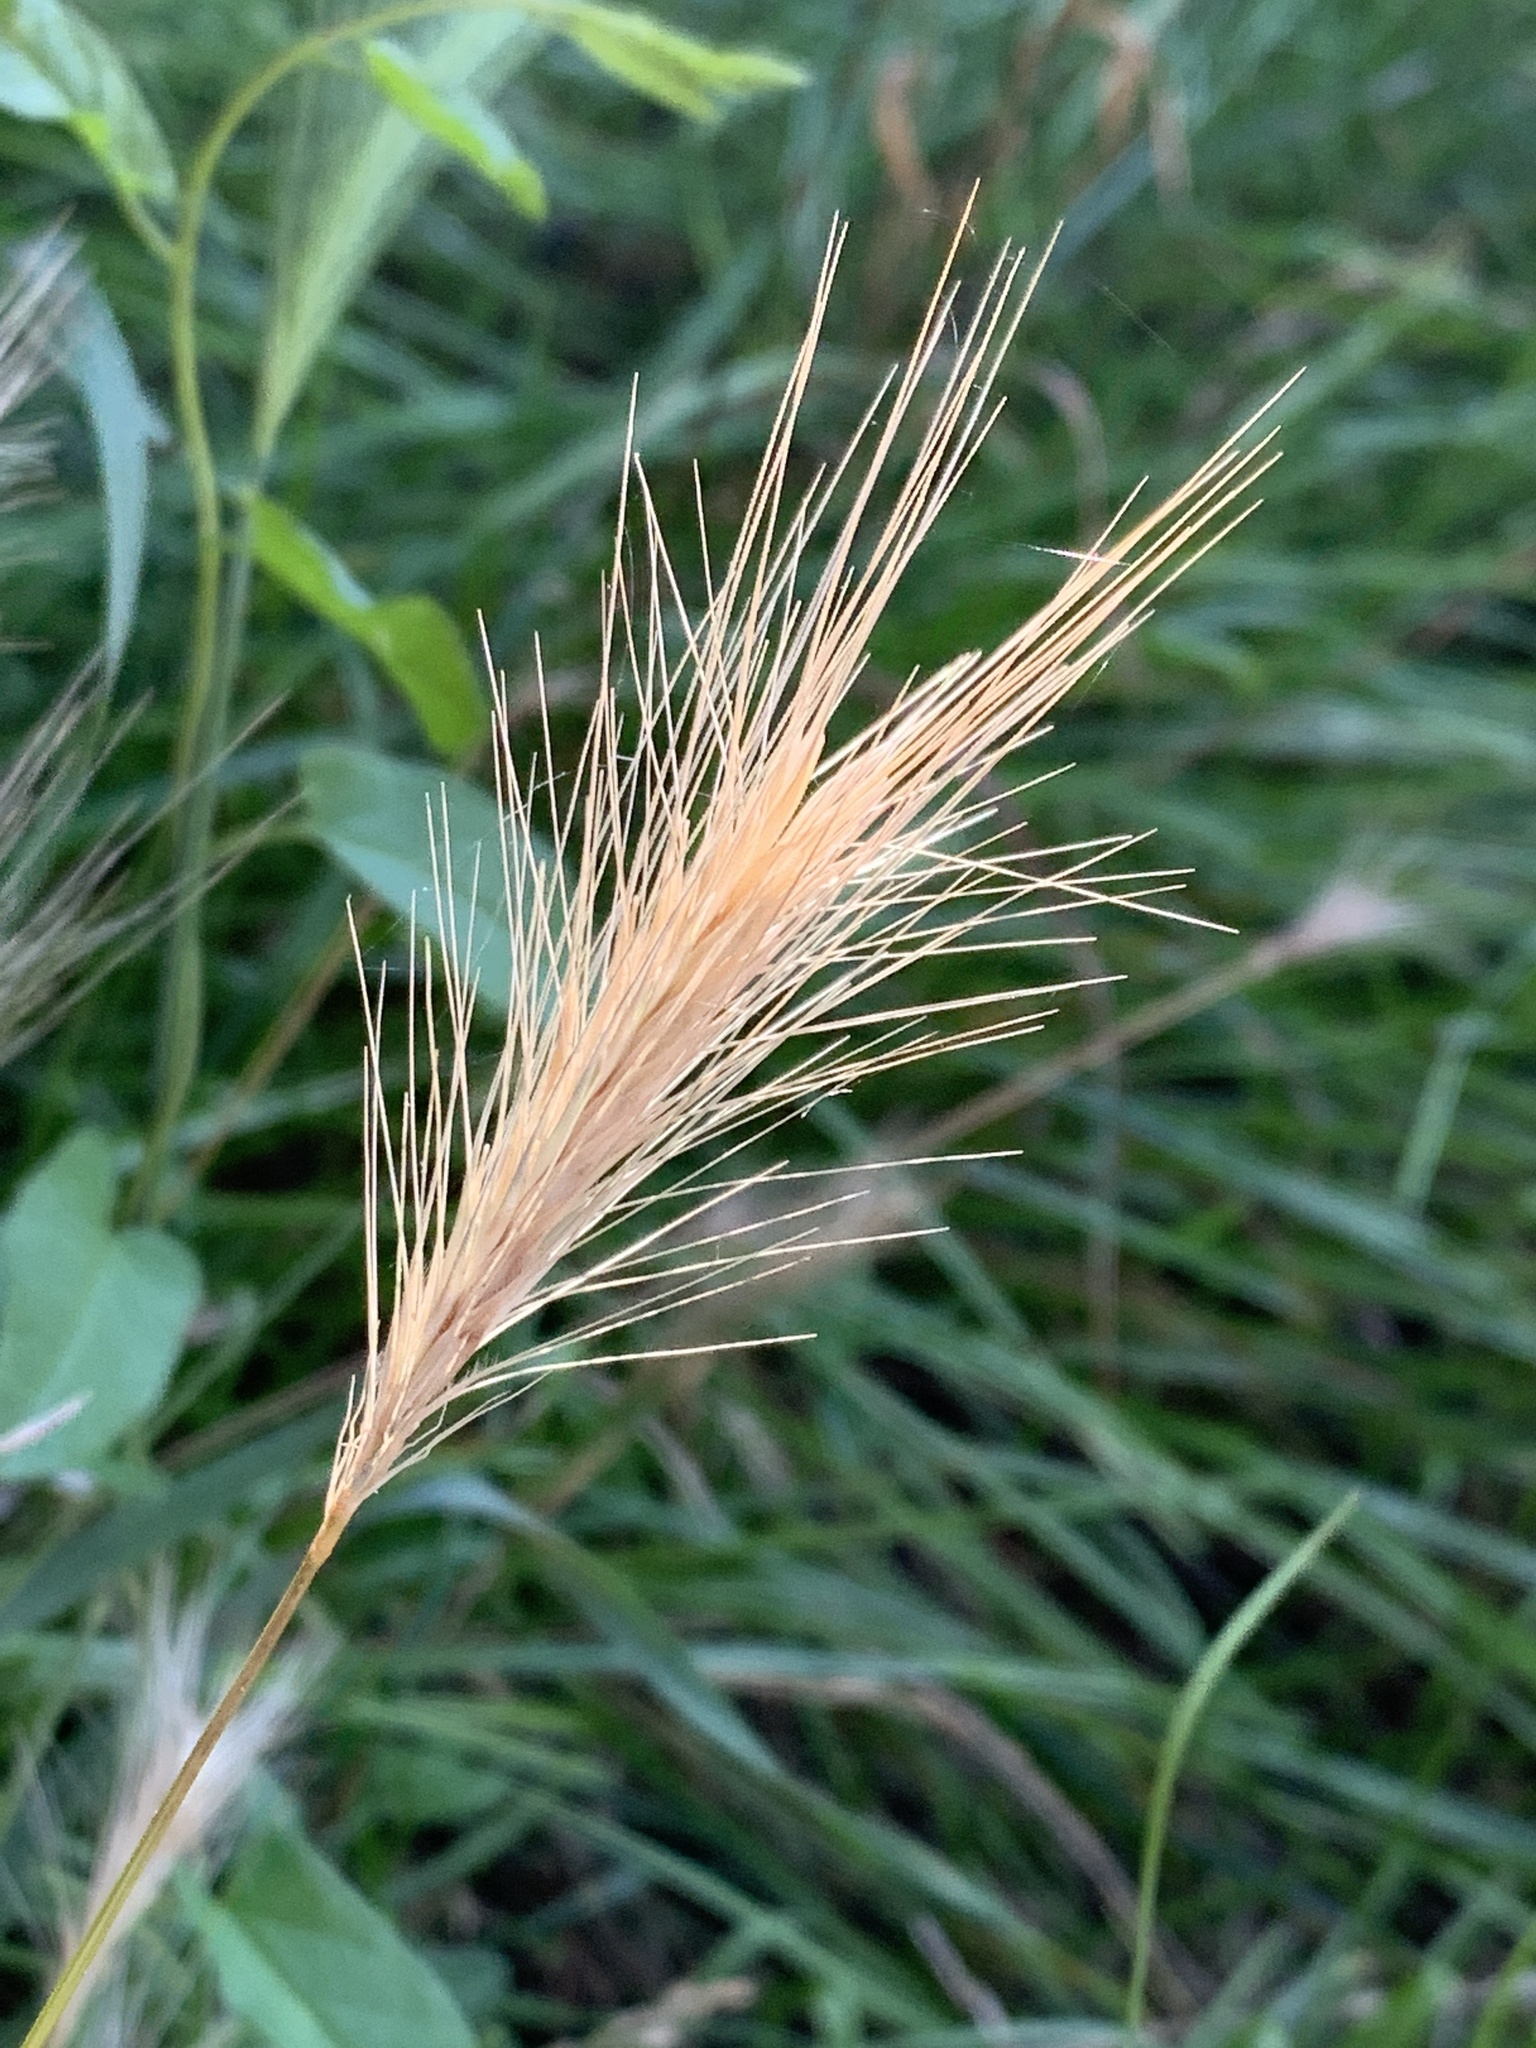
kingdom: Plantae
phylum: Tracheophyta
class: Liliopsida
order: Poales
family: Poaceae
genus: Hordeum
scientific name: Hordeum murinum
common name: Wall barley
